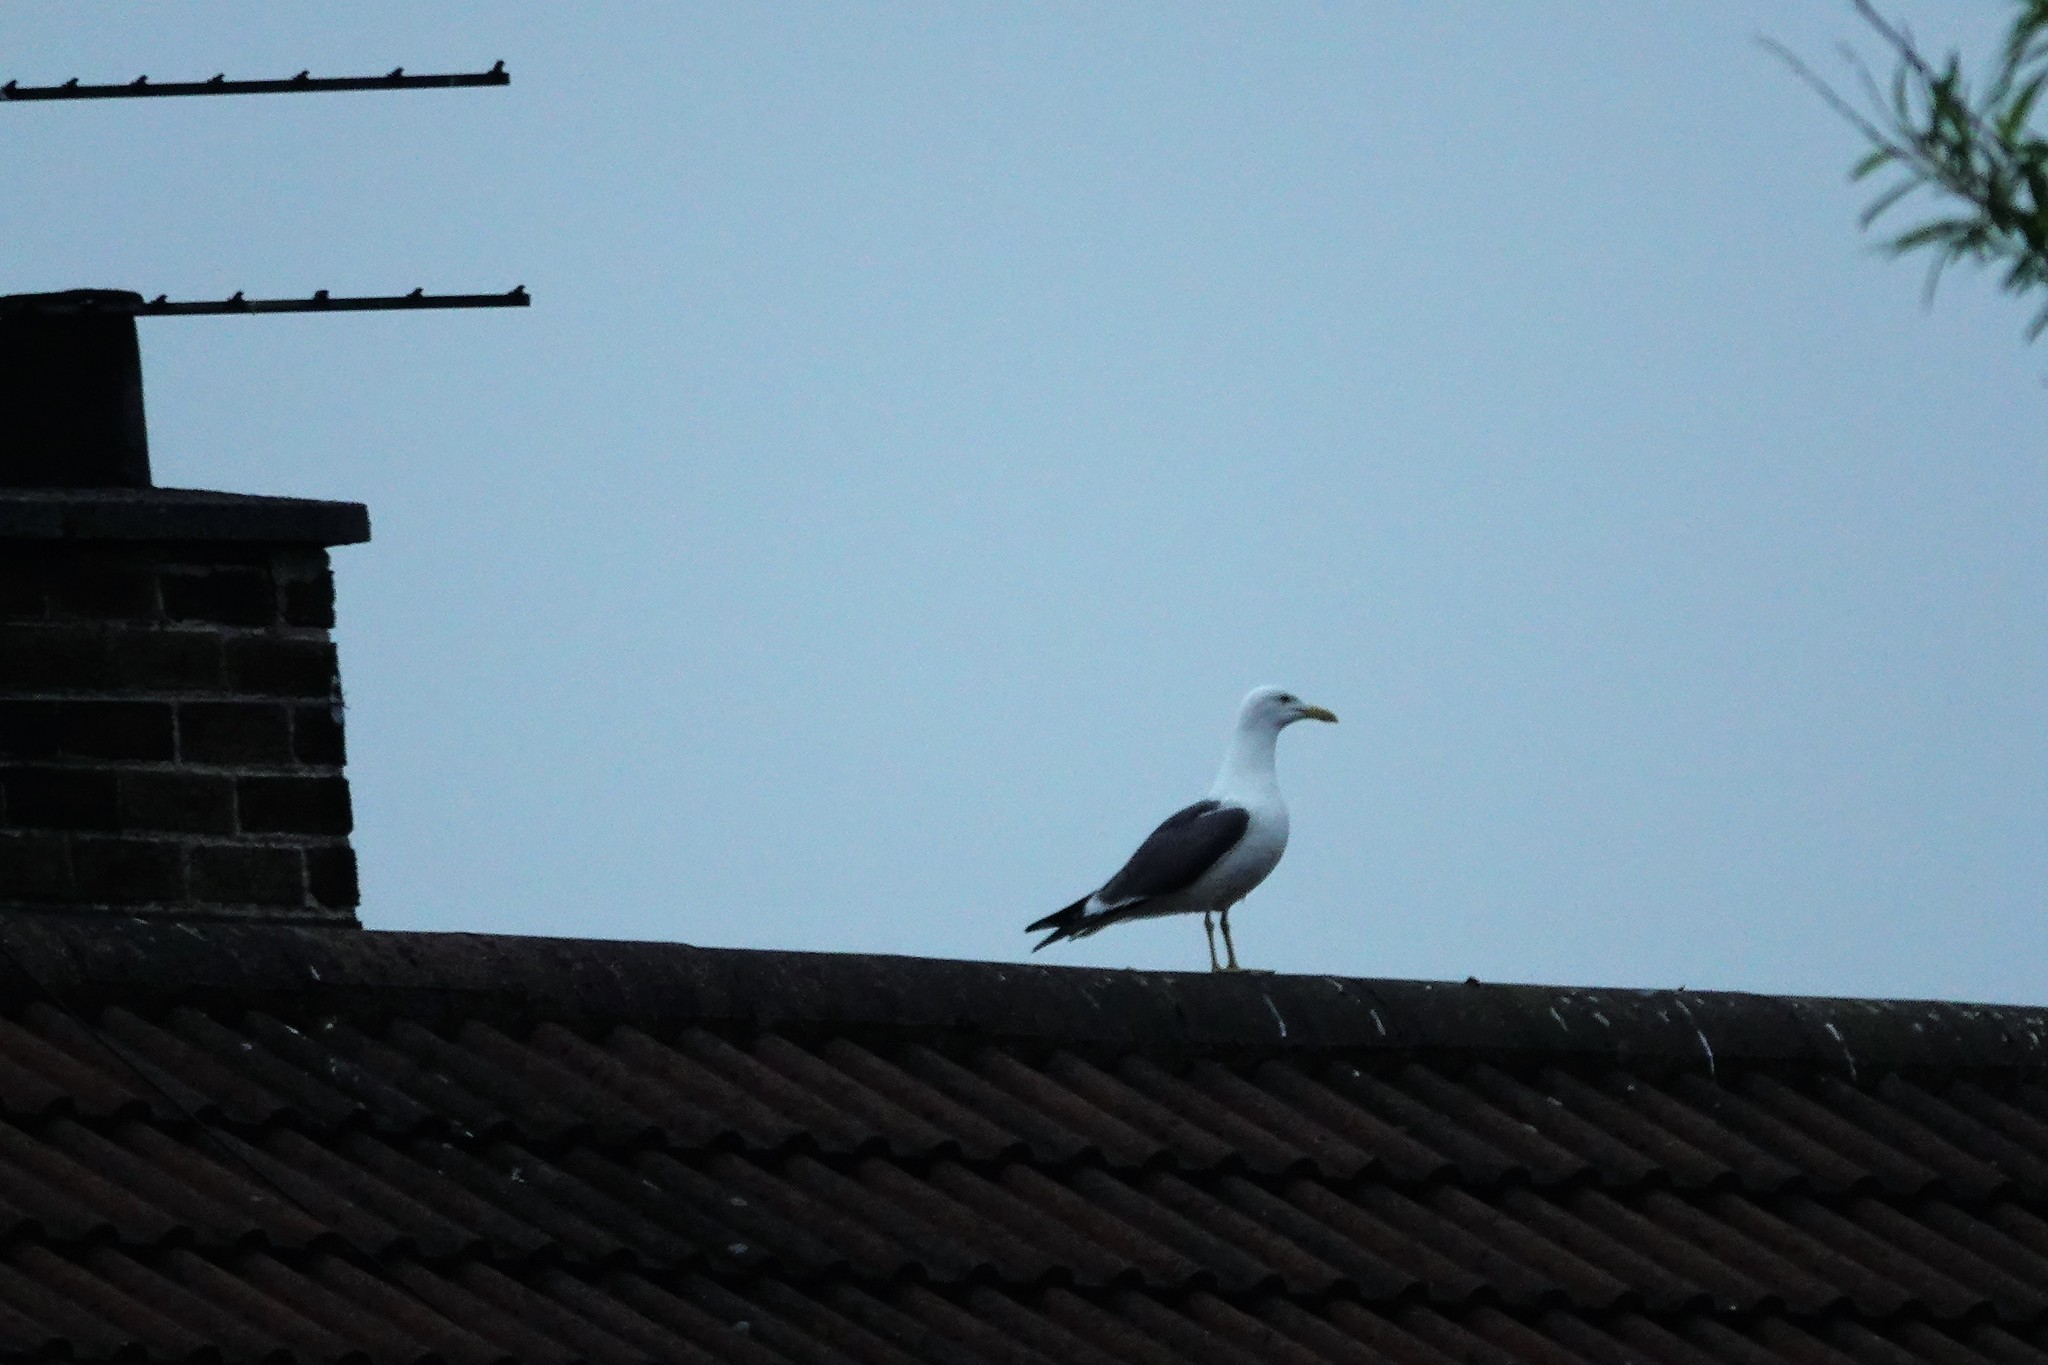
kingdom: Animalia
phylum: Chordata
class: Aves
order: Charadriiformes
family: Laridae
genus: Larus
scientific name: Larus fuscus
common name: Lesser black-backed gull
